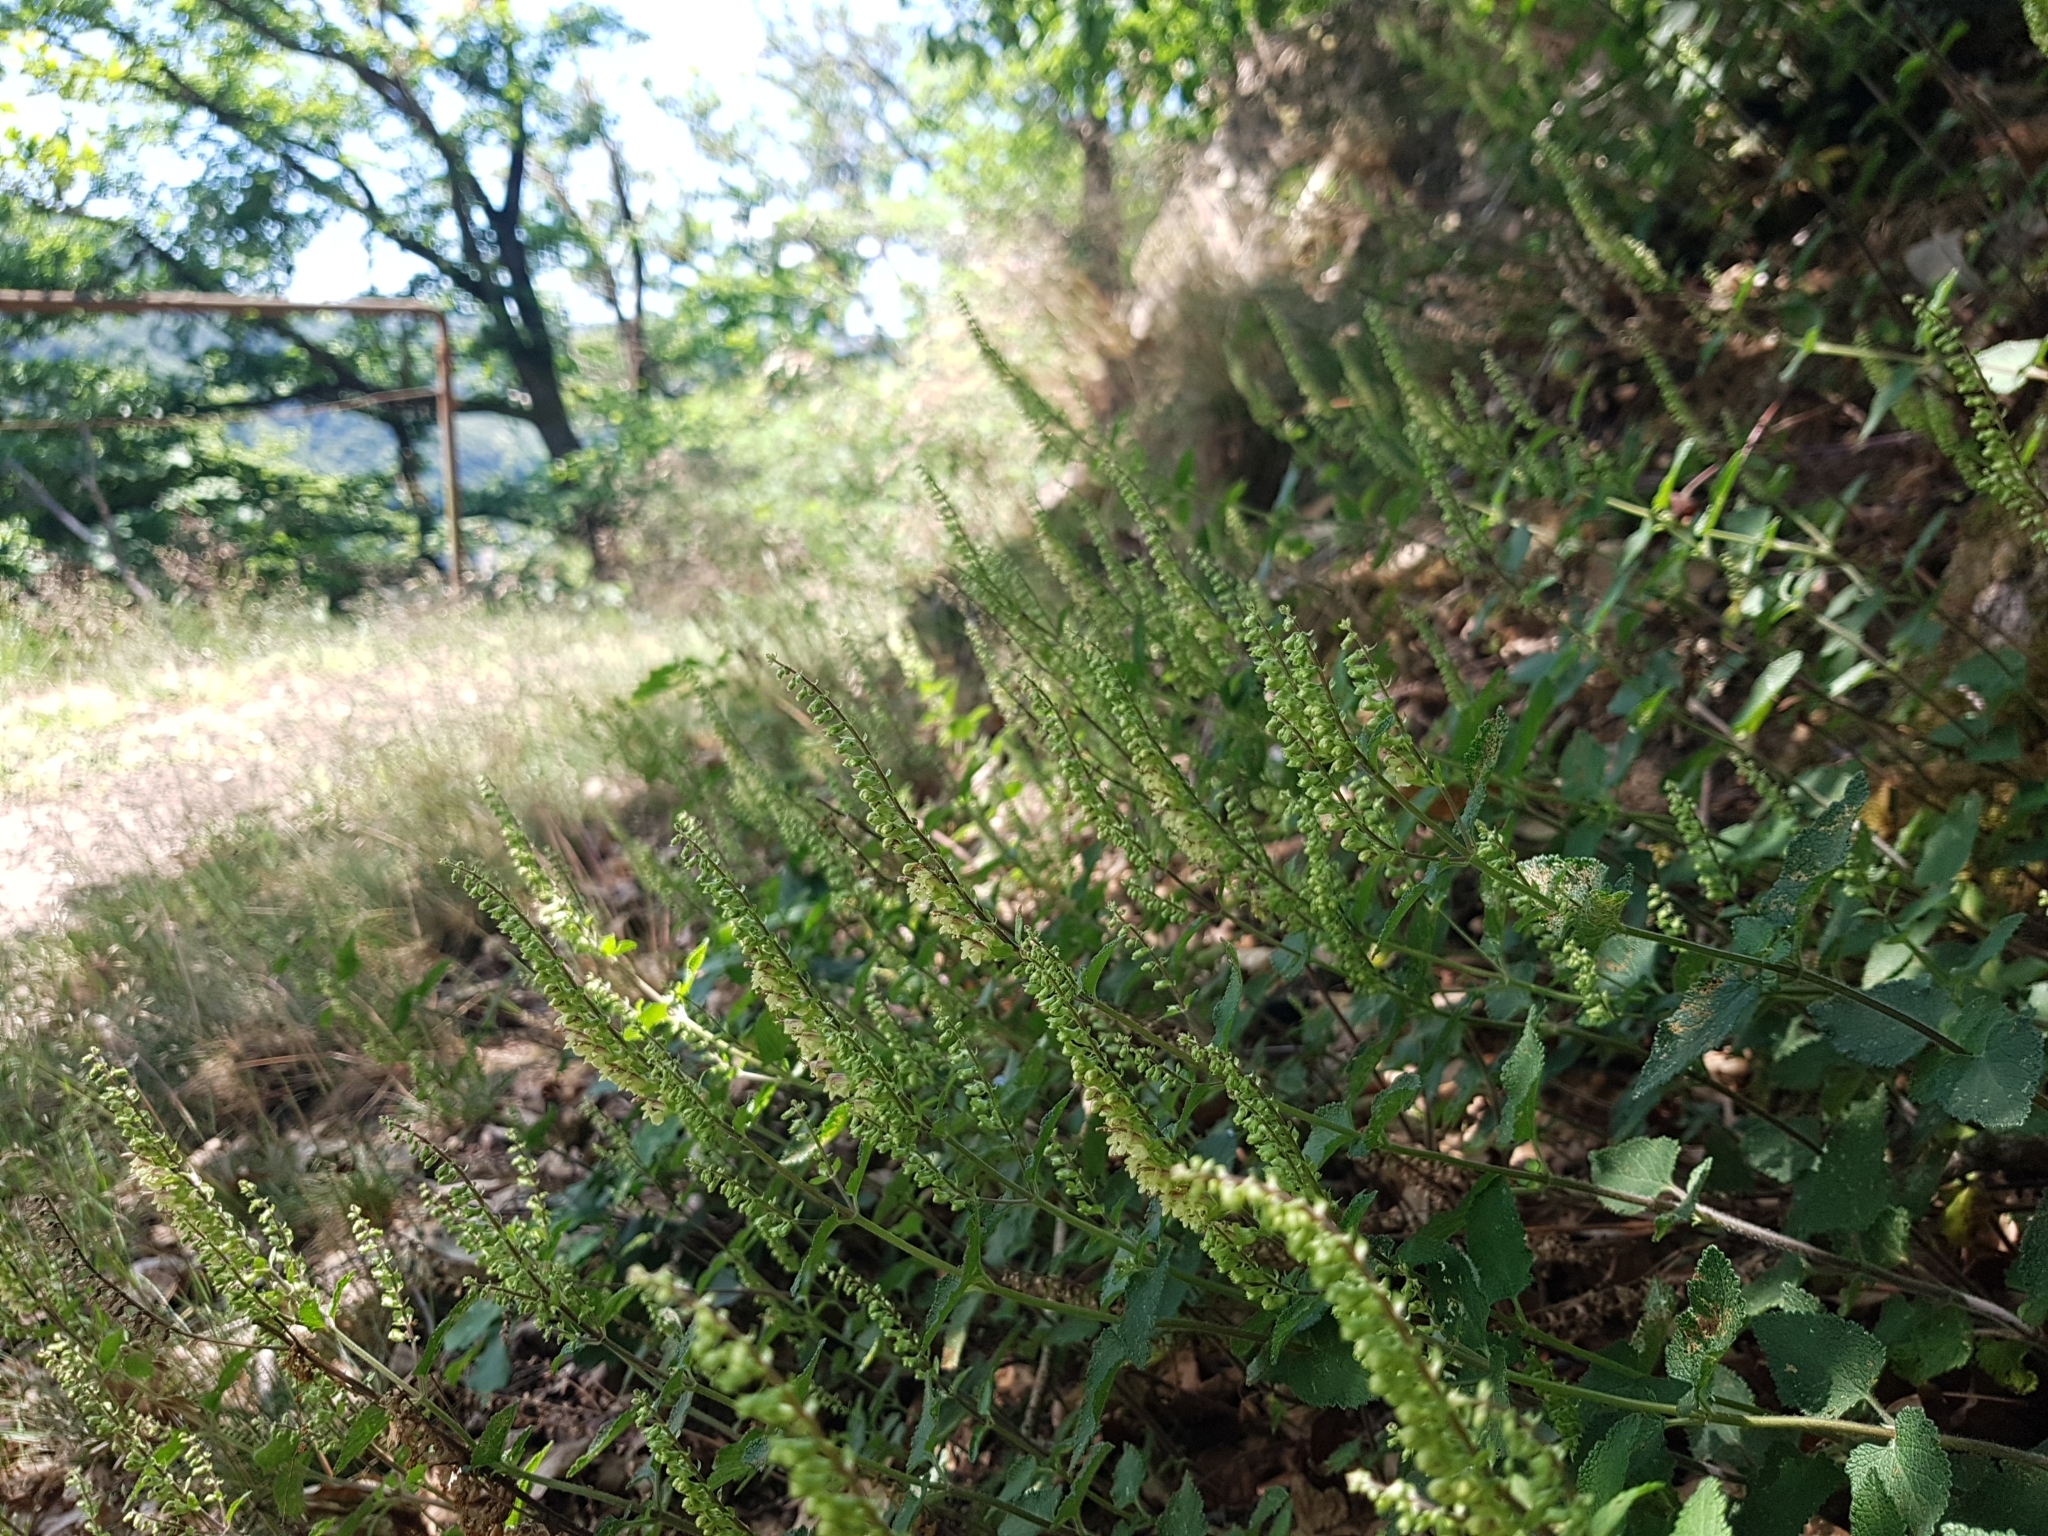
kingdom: Plantae
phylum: Tracheophyta
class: Magnoliopsida
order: Lamiales
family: Lamiaceae
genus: Teucrium
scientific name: Teucrium scorodonia
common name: Woodland germander
